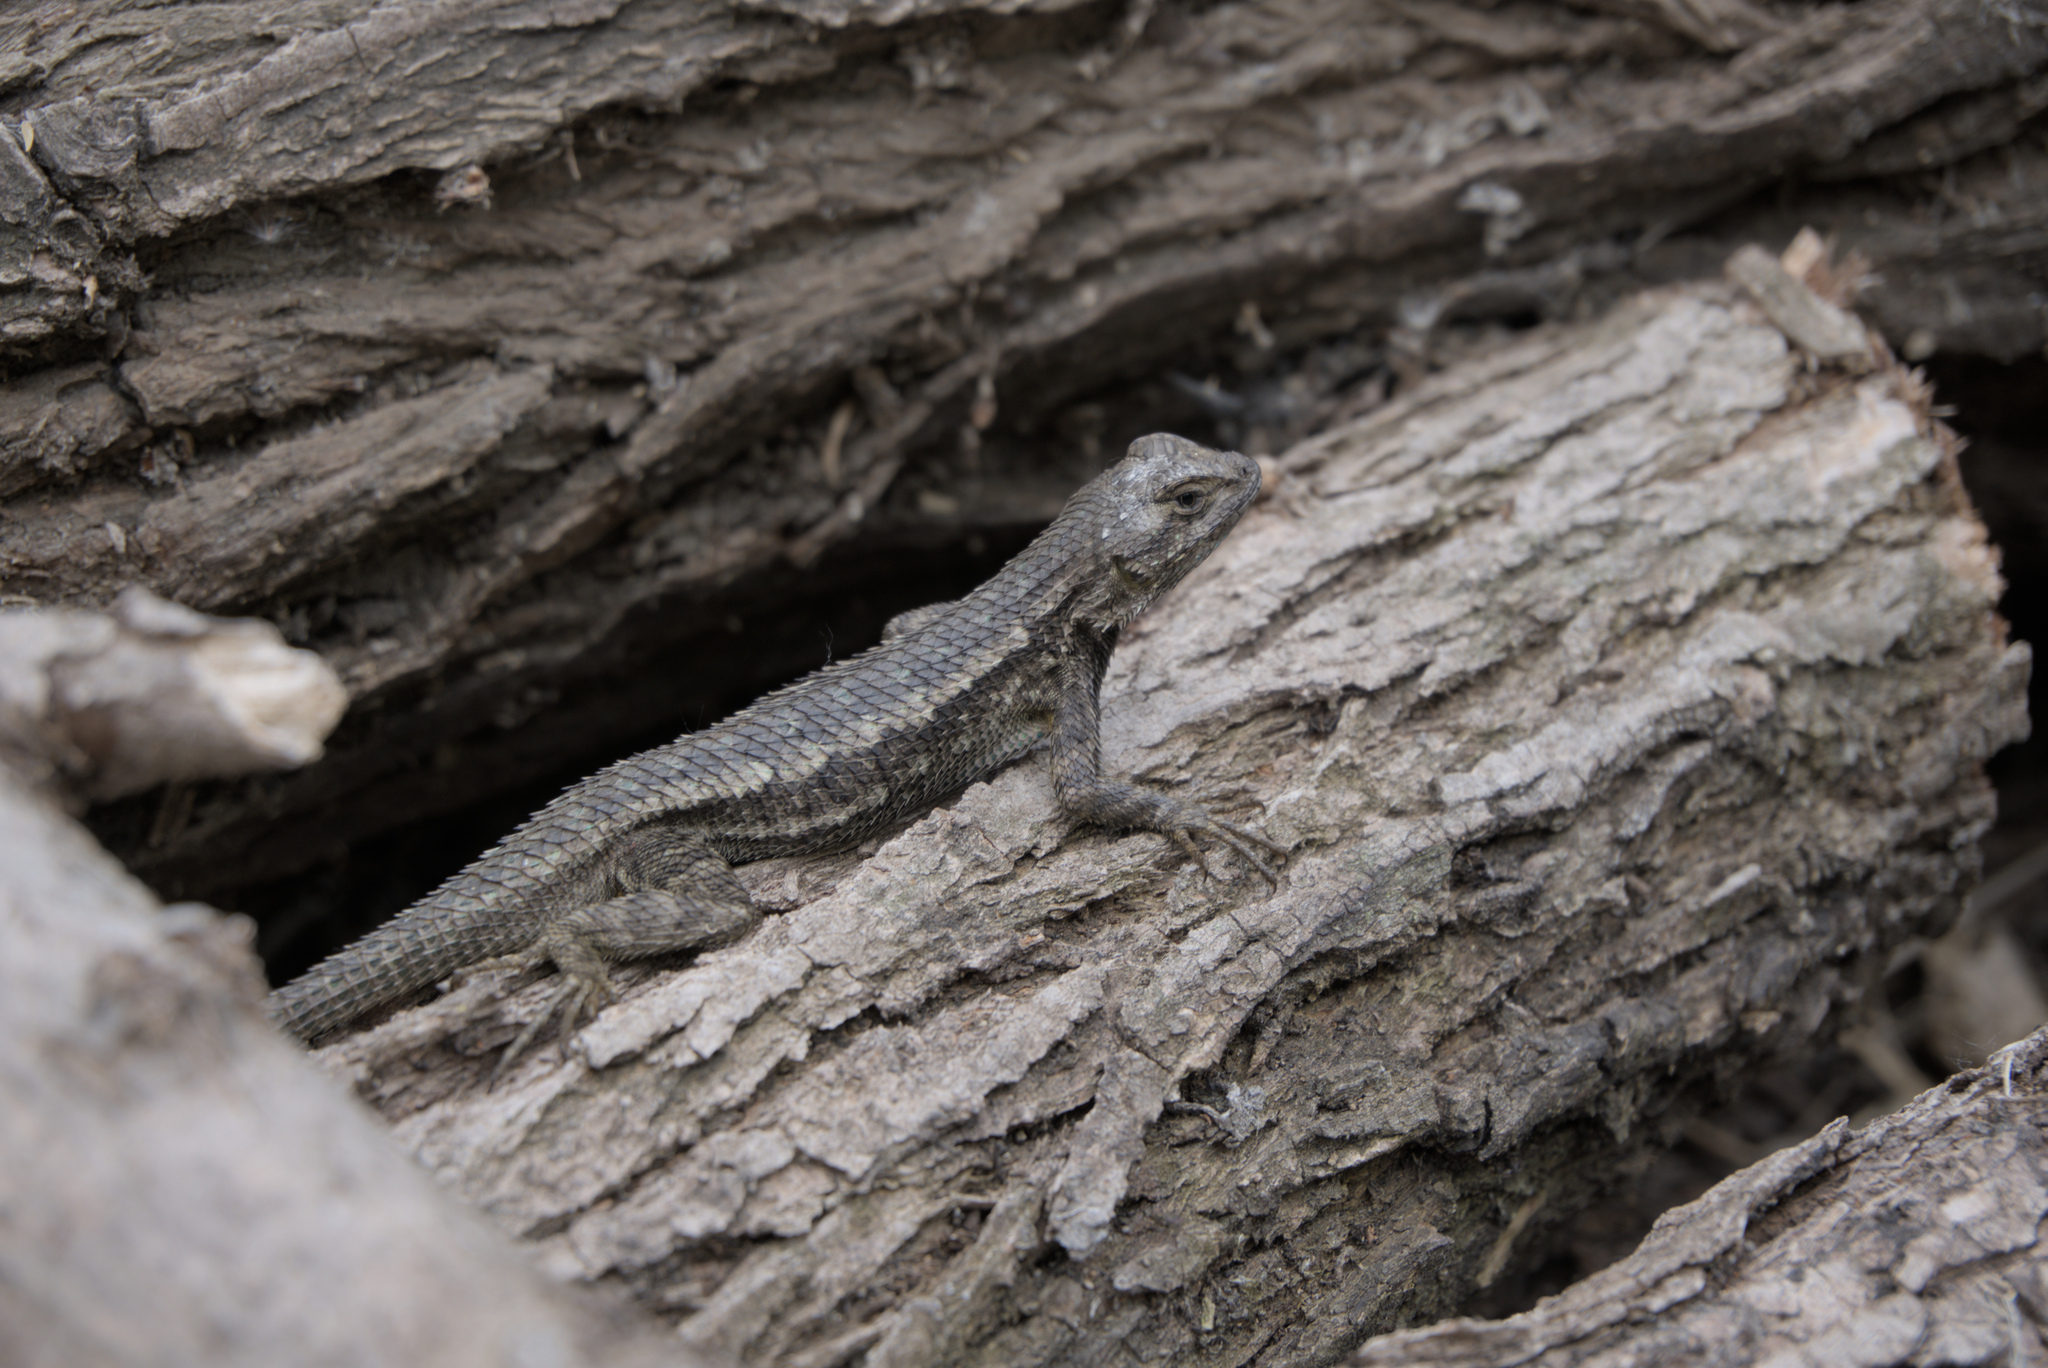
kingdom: Animalia
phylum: Chordata
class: Squamata
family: Phrynosomatidae
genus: Sceloporus
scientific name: Sceloporus occidentalis
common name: Western fence lizard
